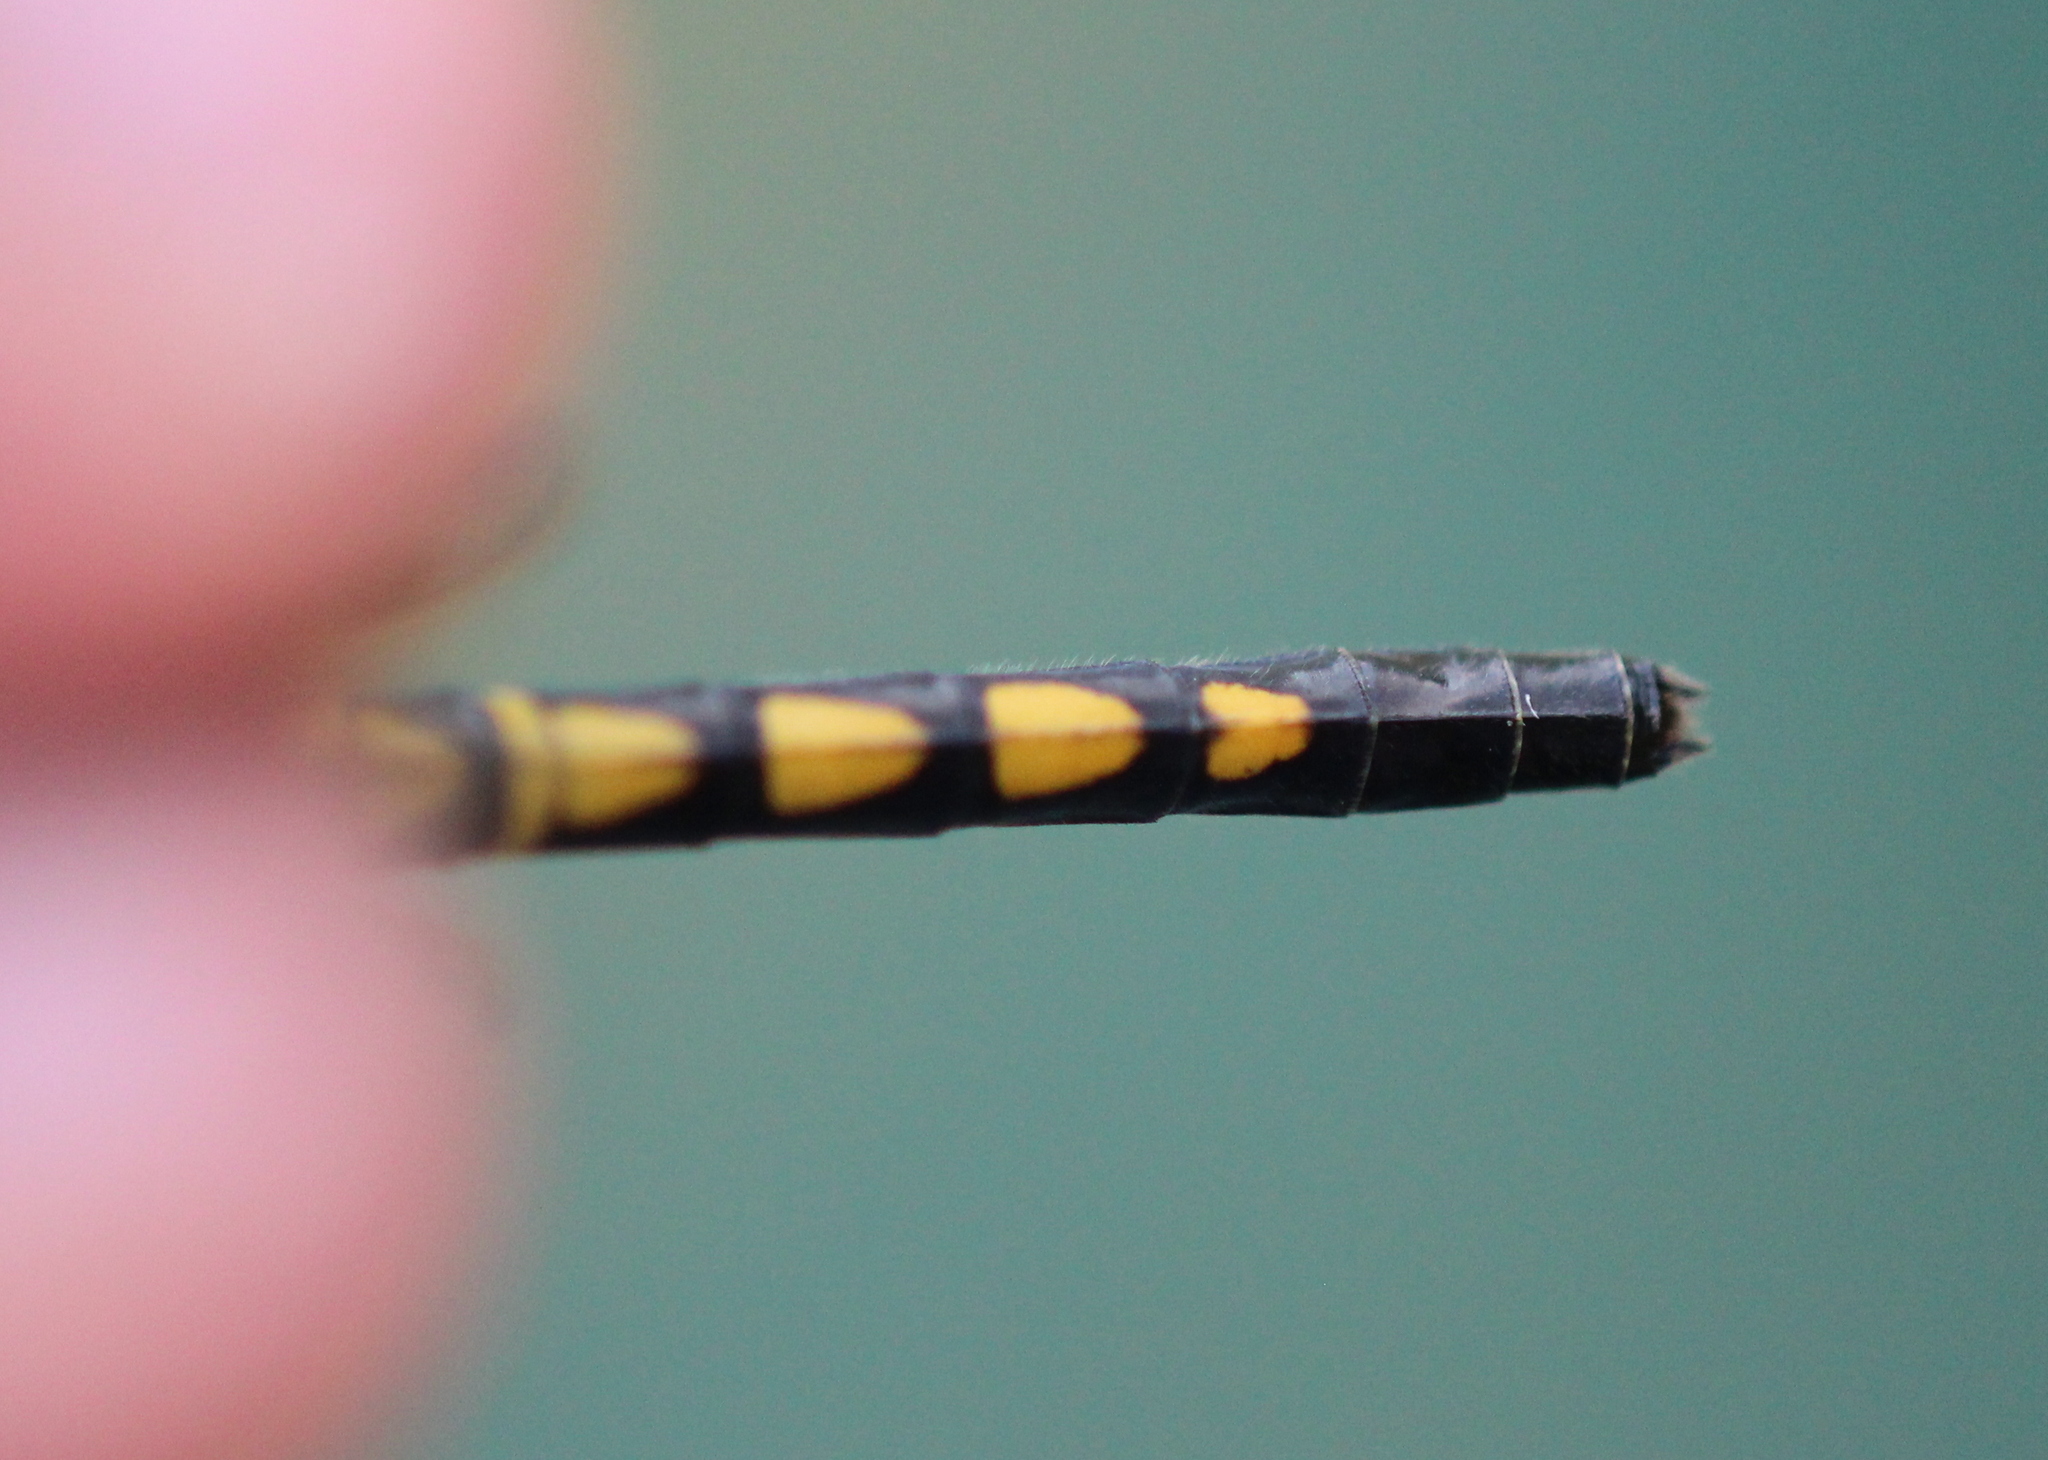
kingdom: Animalia
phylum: Arthropoda
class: Insecta
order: Odonata
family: Libellulidae
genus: Celithemis
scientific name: Celithemis martha
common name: Martha's pennant
